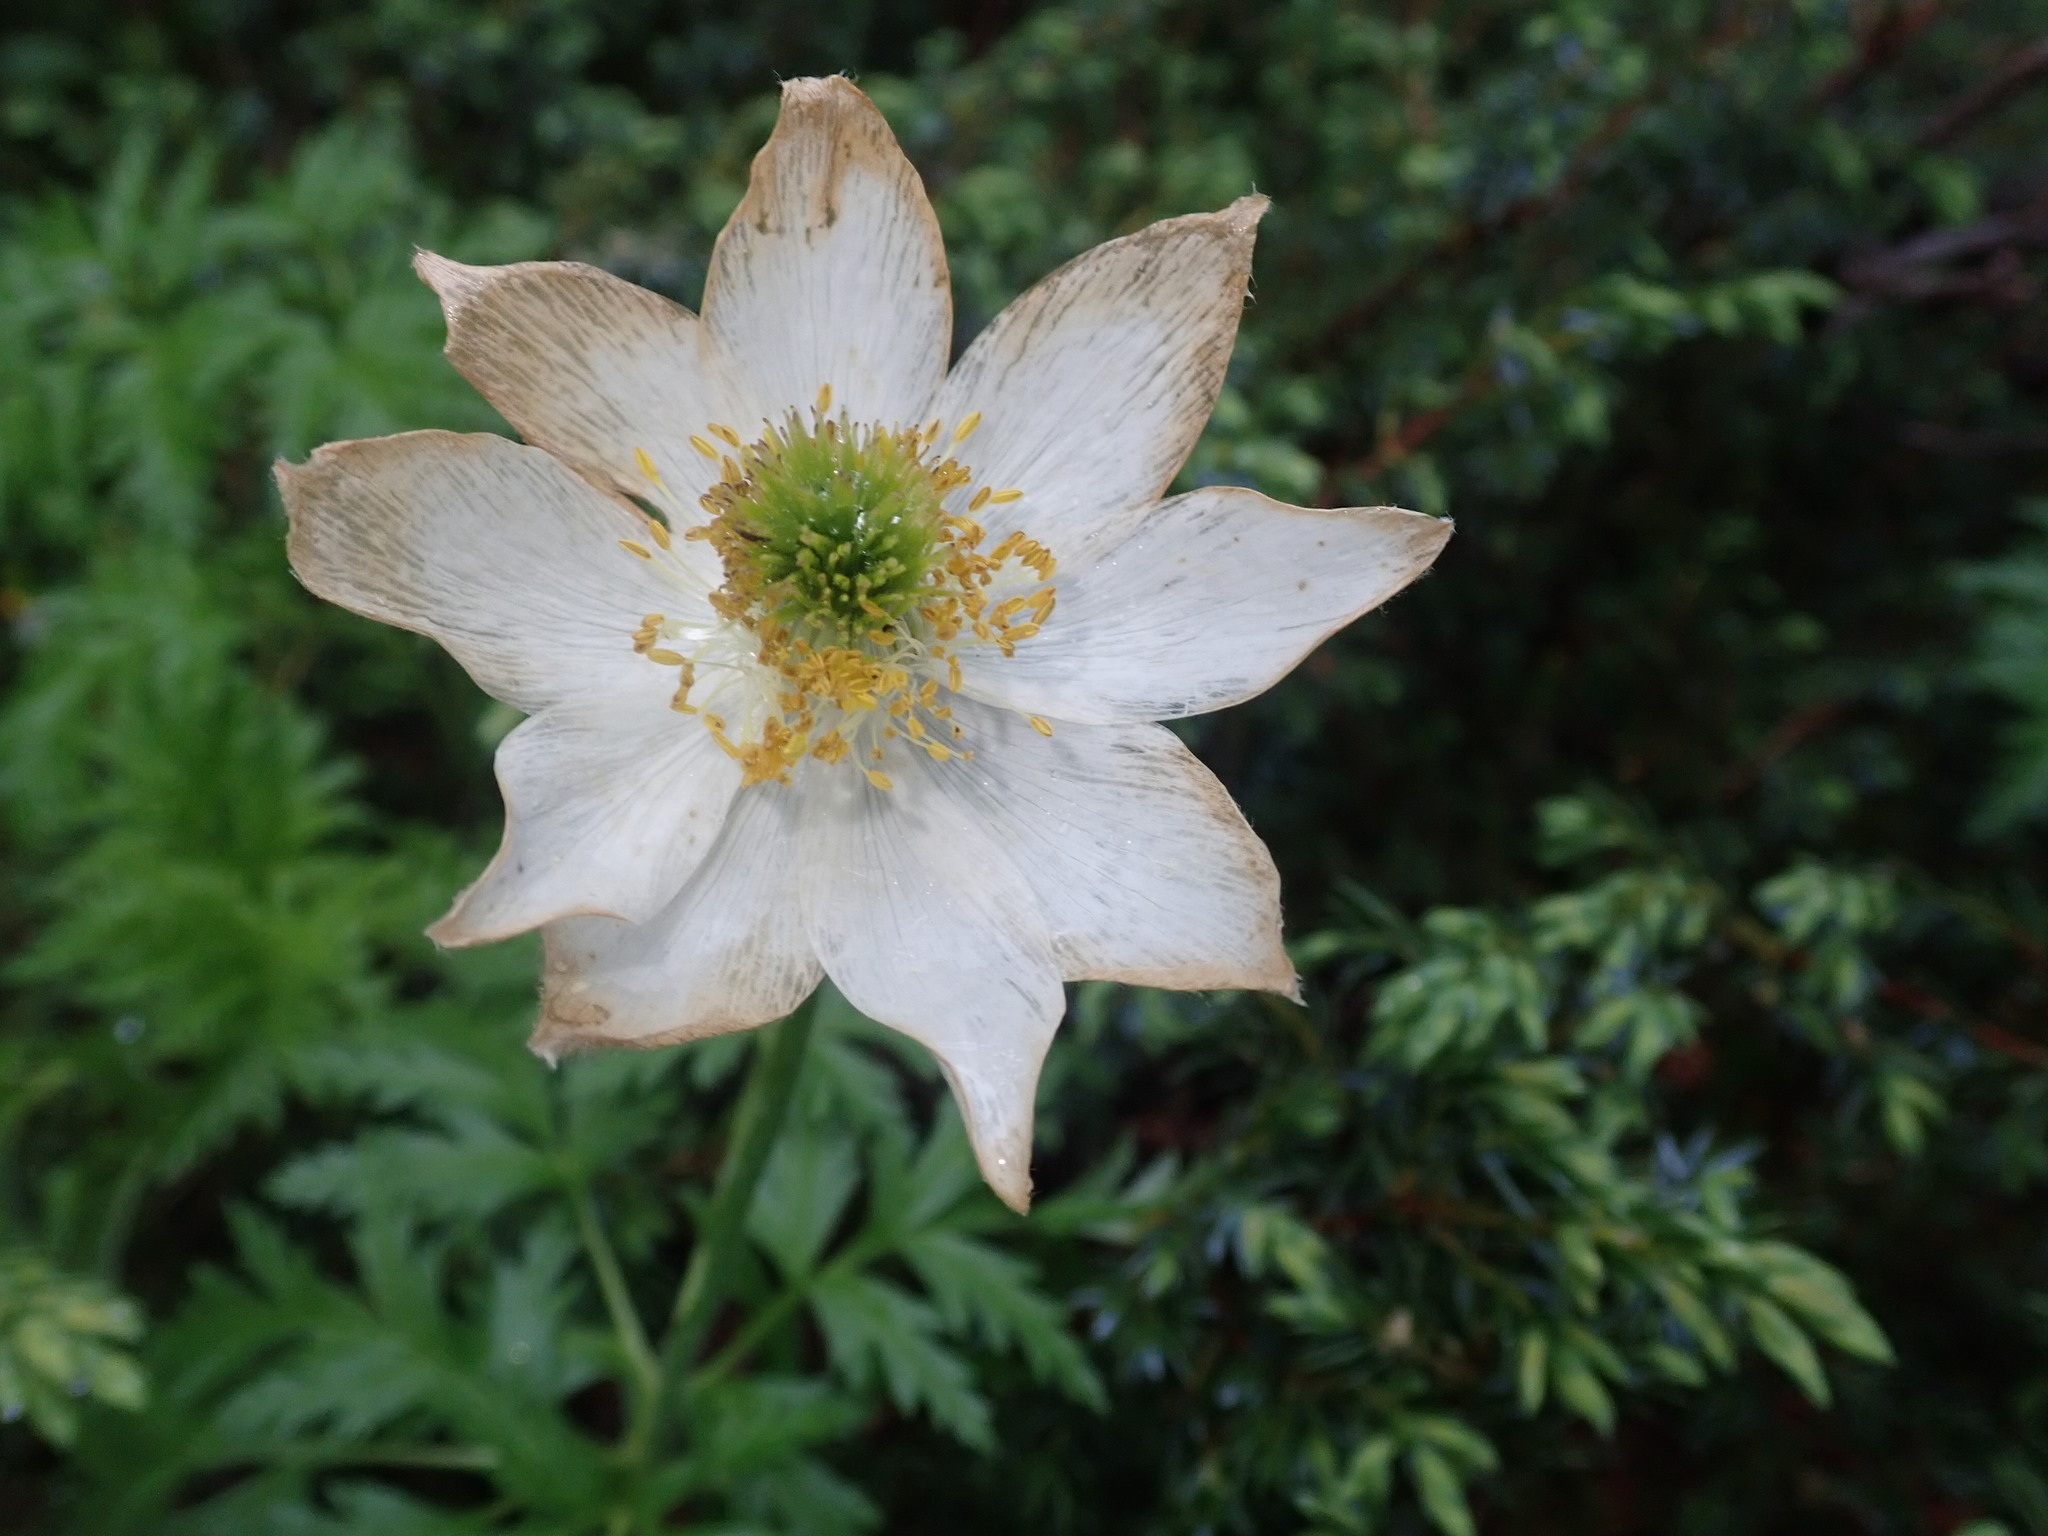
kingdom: Plantae
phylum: Tracheophyta
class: Magnoliopsida
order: Ranunculales
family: Ranunculaceae
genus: Pulsatilla
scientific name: Pulsatilla alpina
